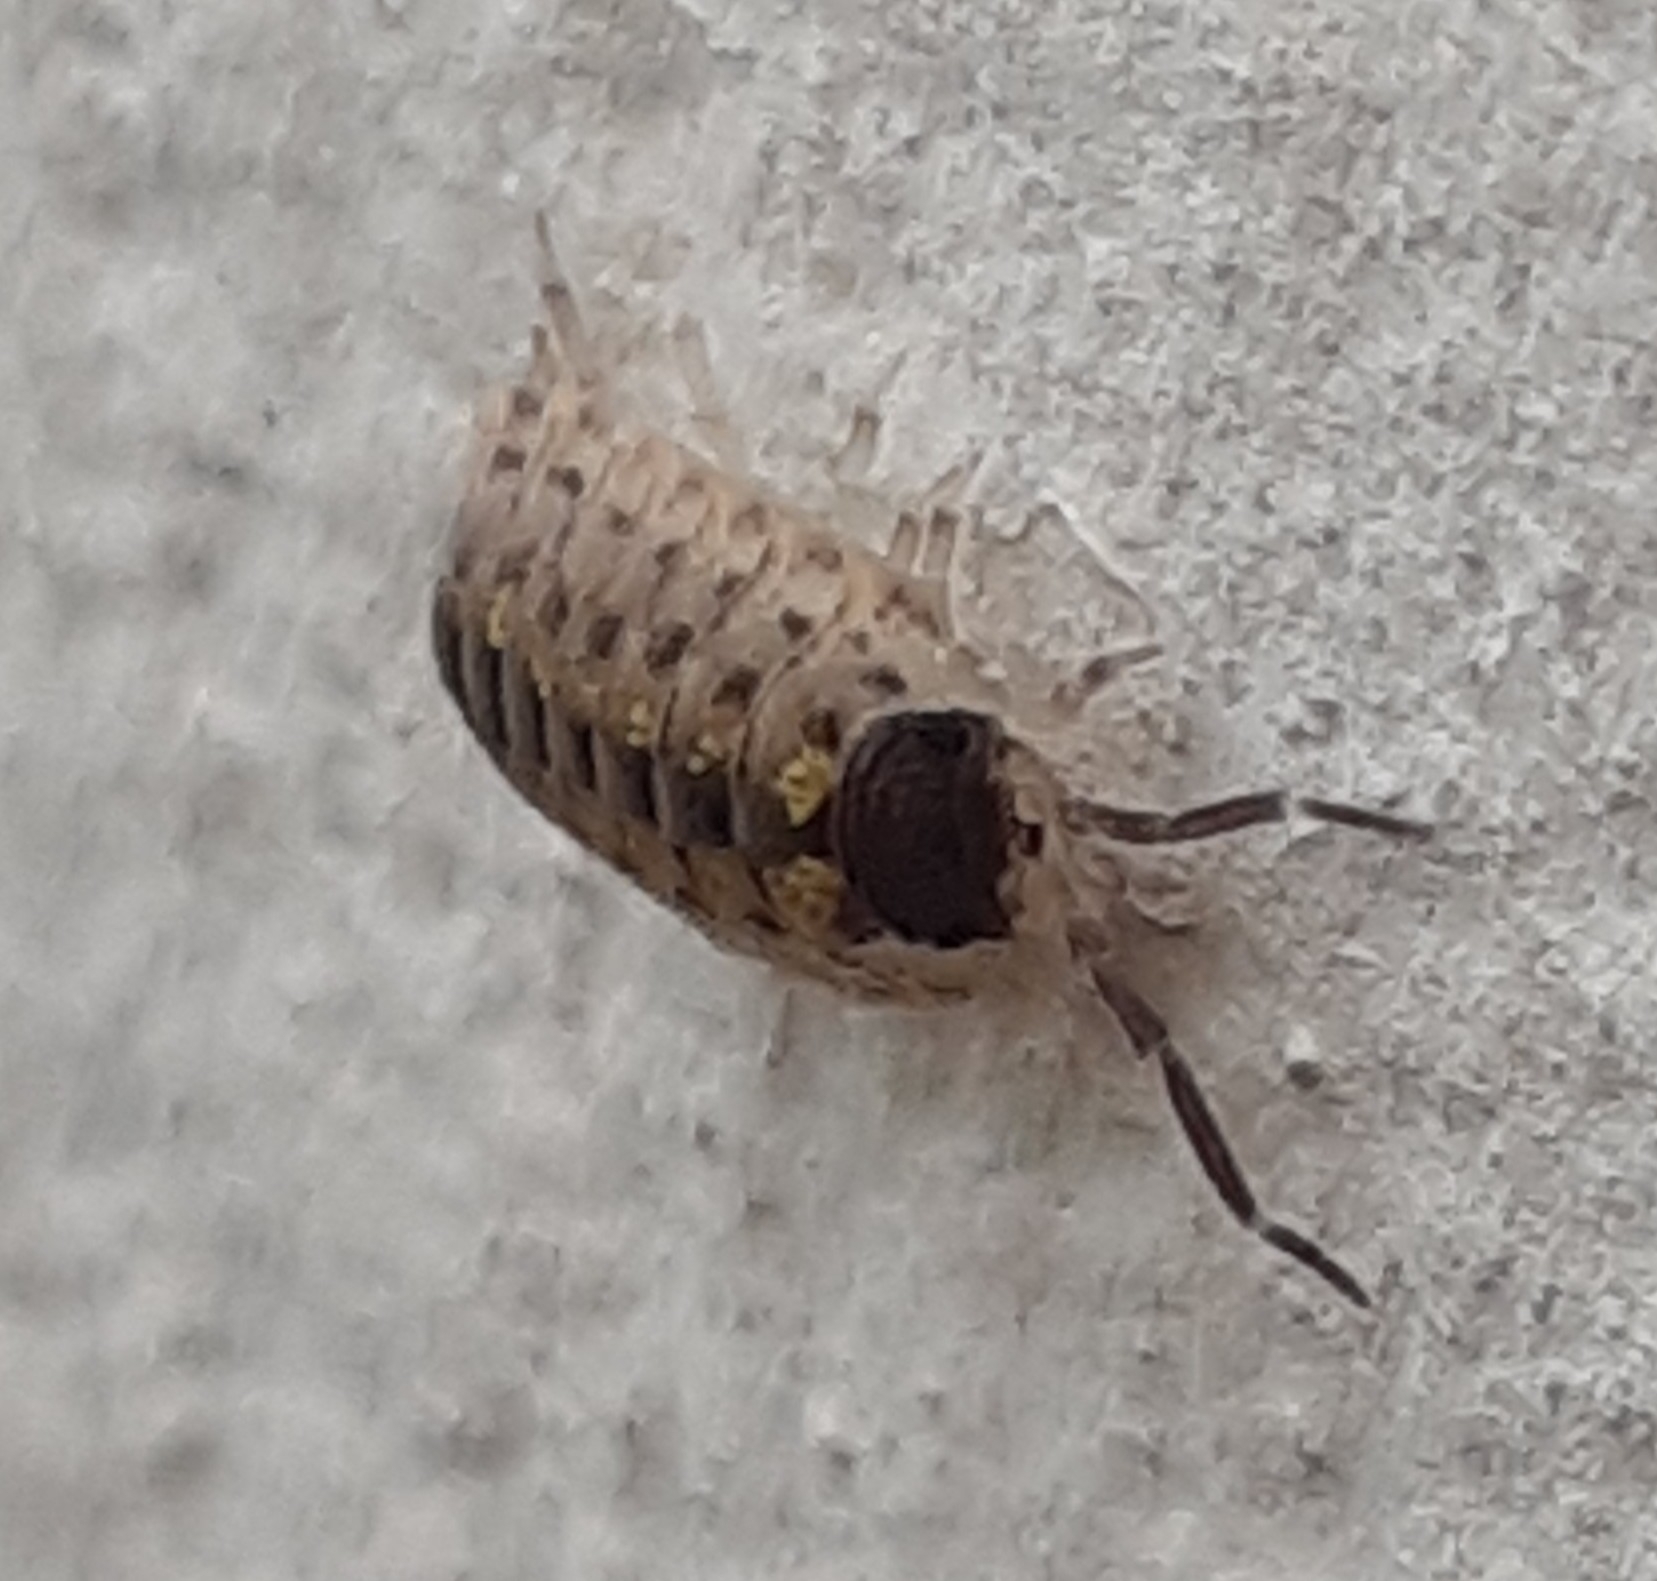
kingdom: Animalia
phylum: Arthropoda
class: Malacostraca
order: Isopoda
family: Porcellionidae
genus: Porcellio
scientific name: Porcellio spinicornis
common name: Painted woodlouse
